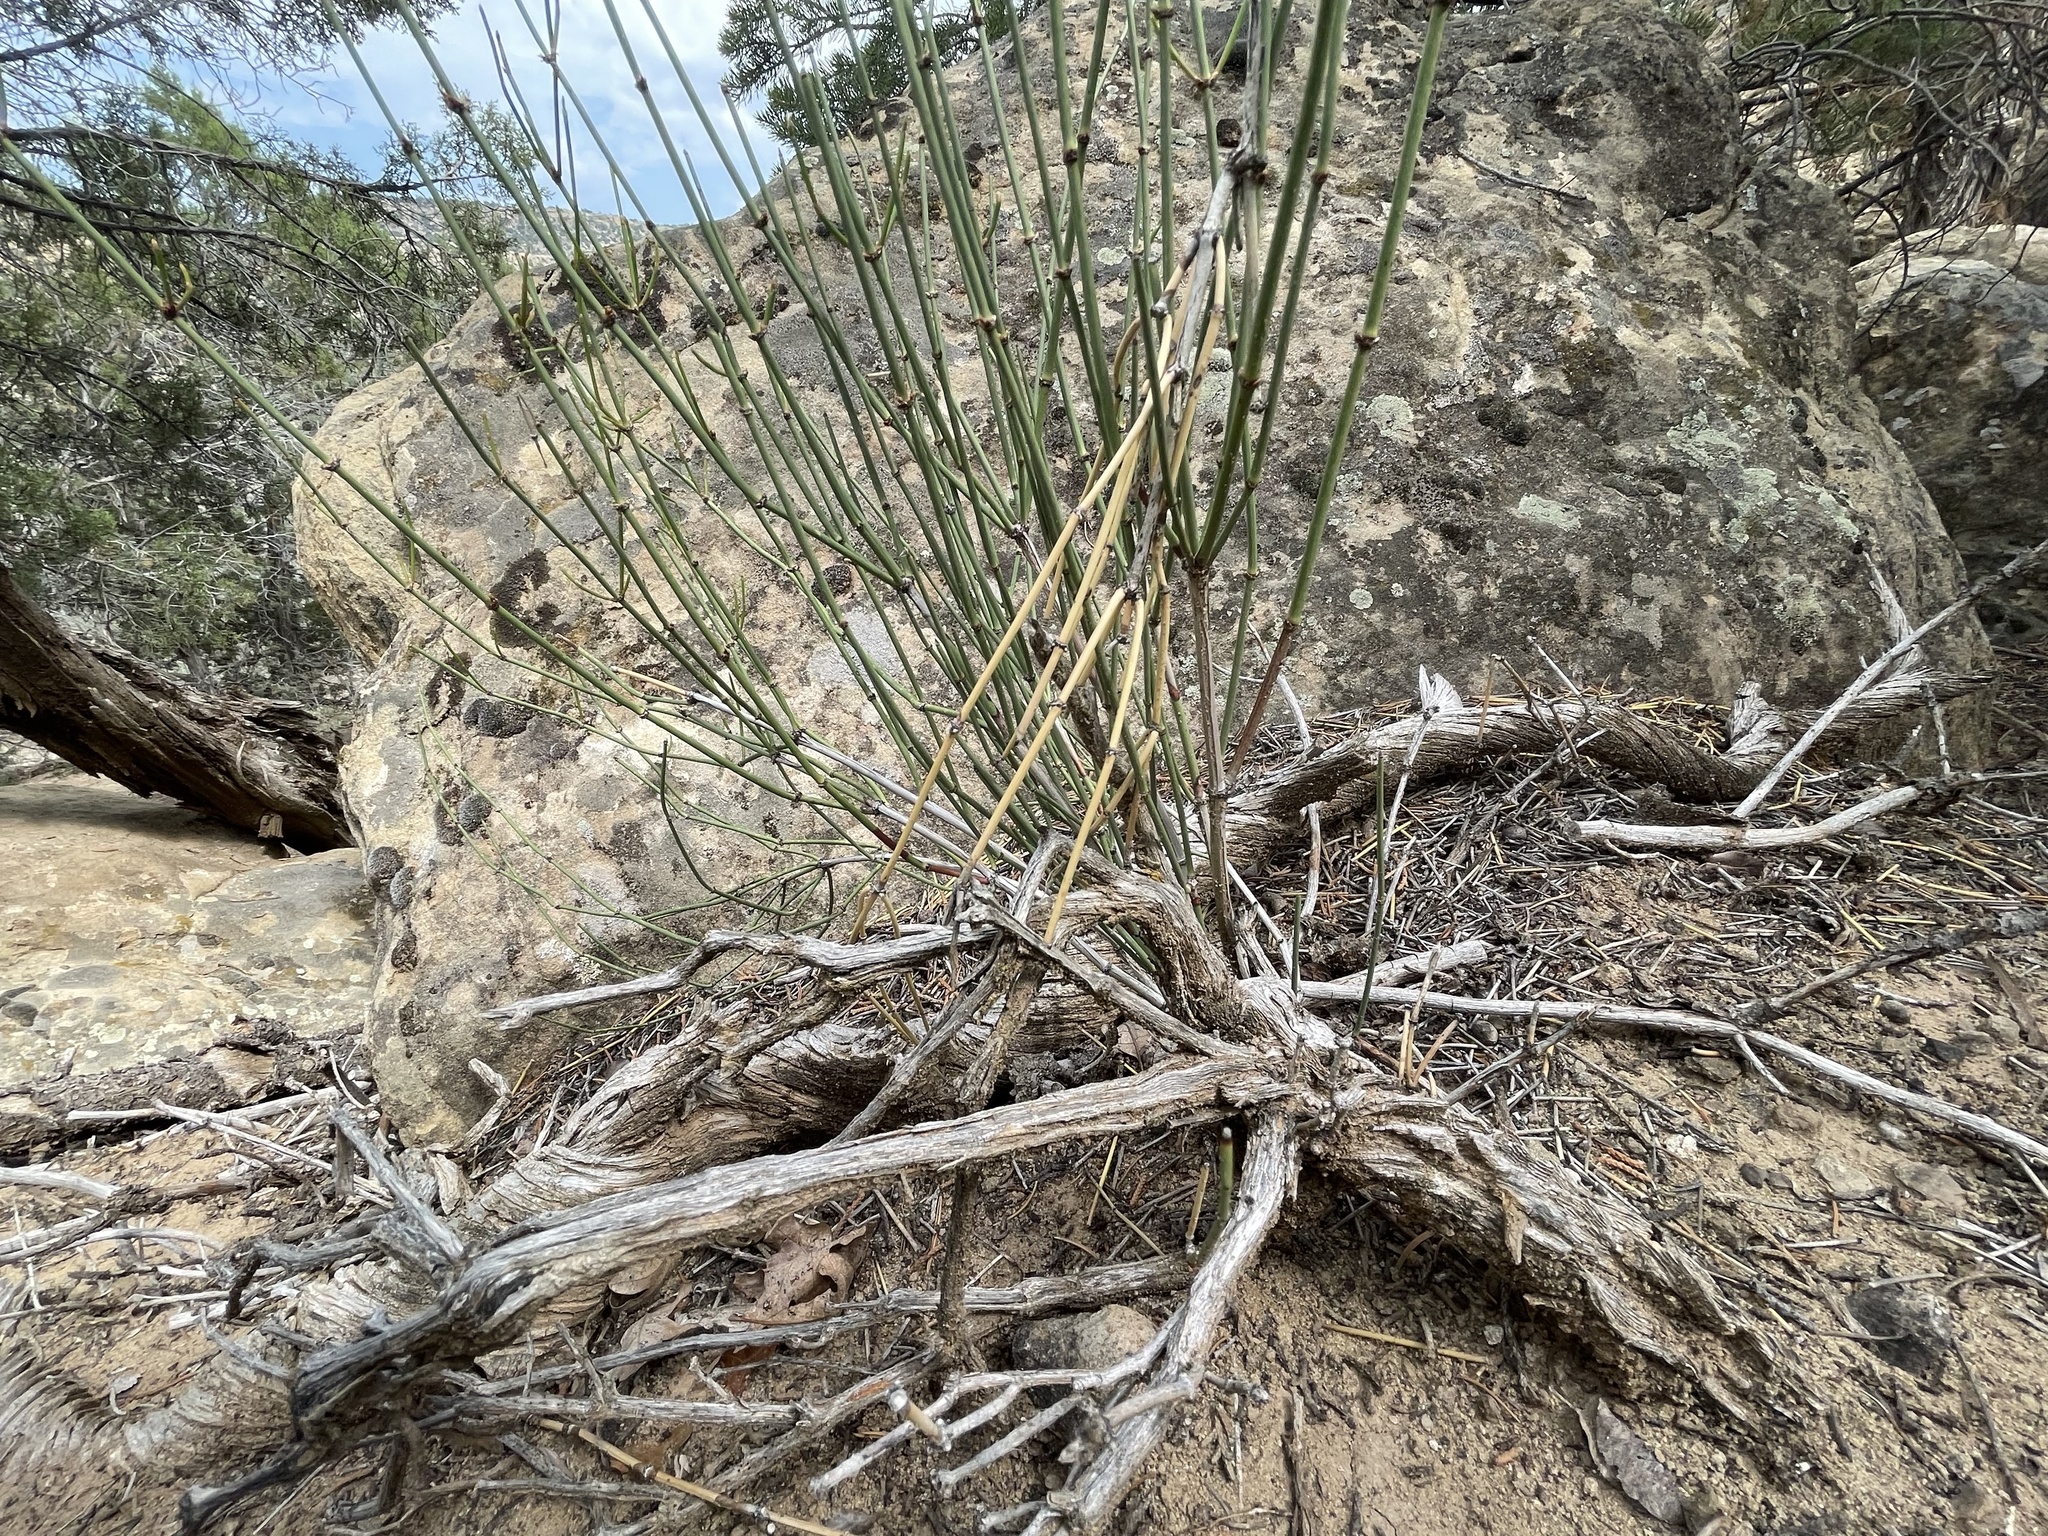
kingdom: Plantae
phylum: Tracheophyta
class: Gnetopsida
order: Ephedrales
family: Ephedraceae
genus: Ephedra
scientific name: Ephedra viridis
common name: Green ephedra
